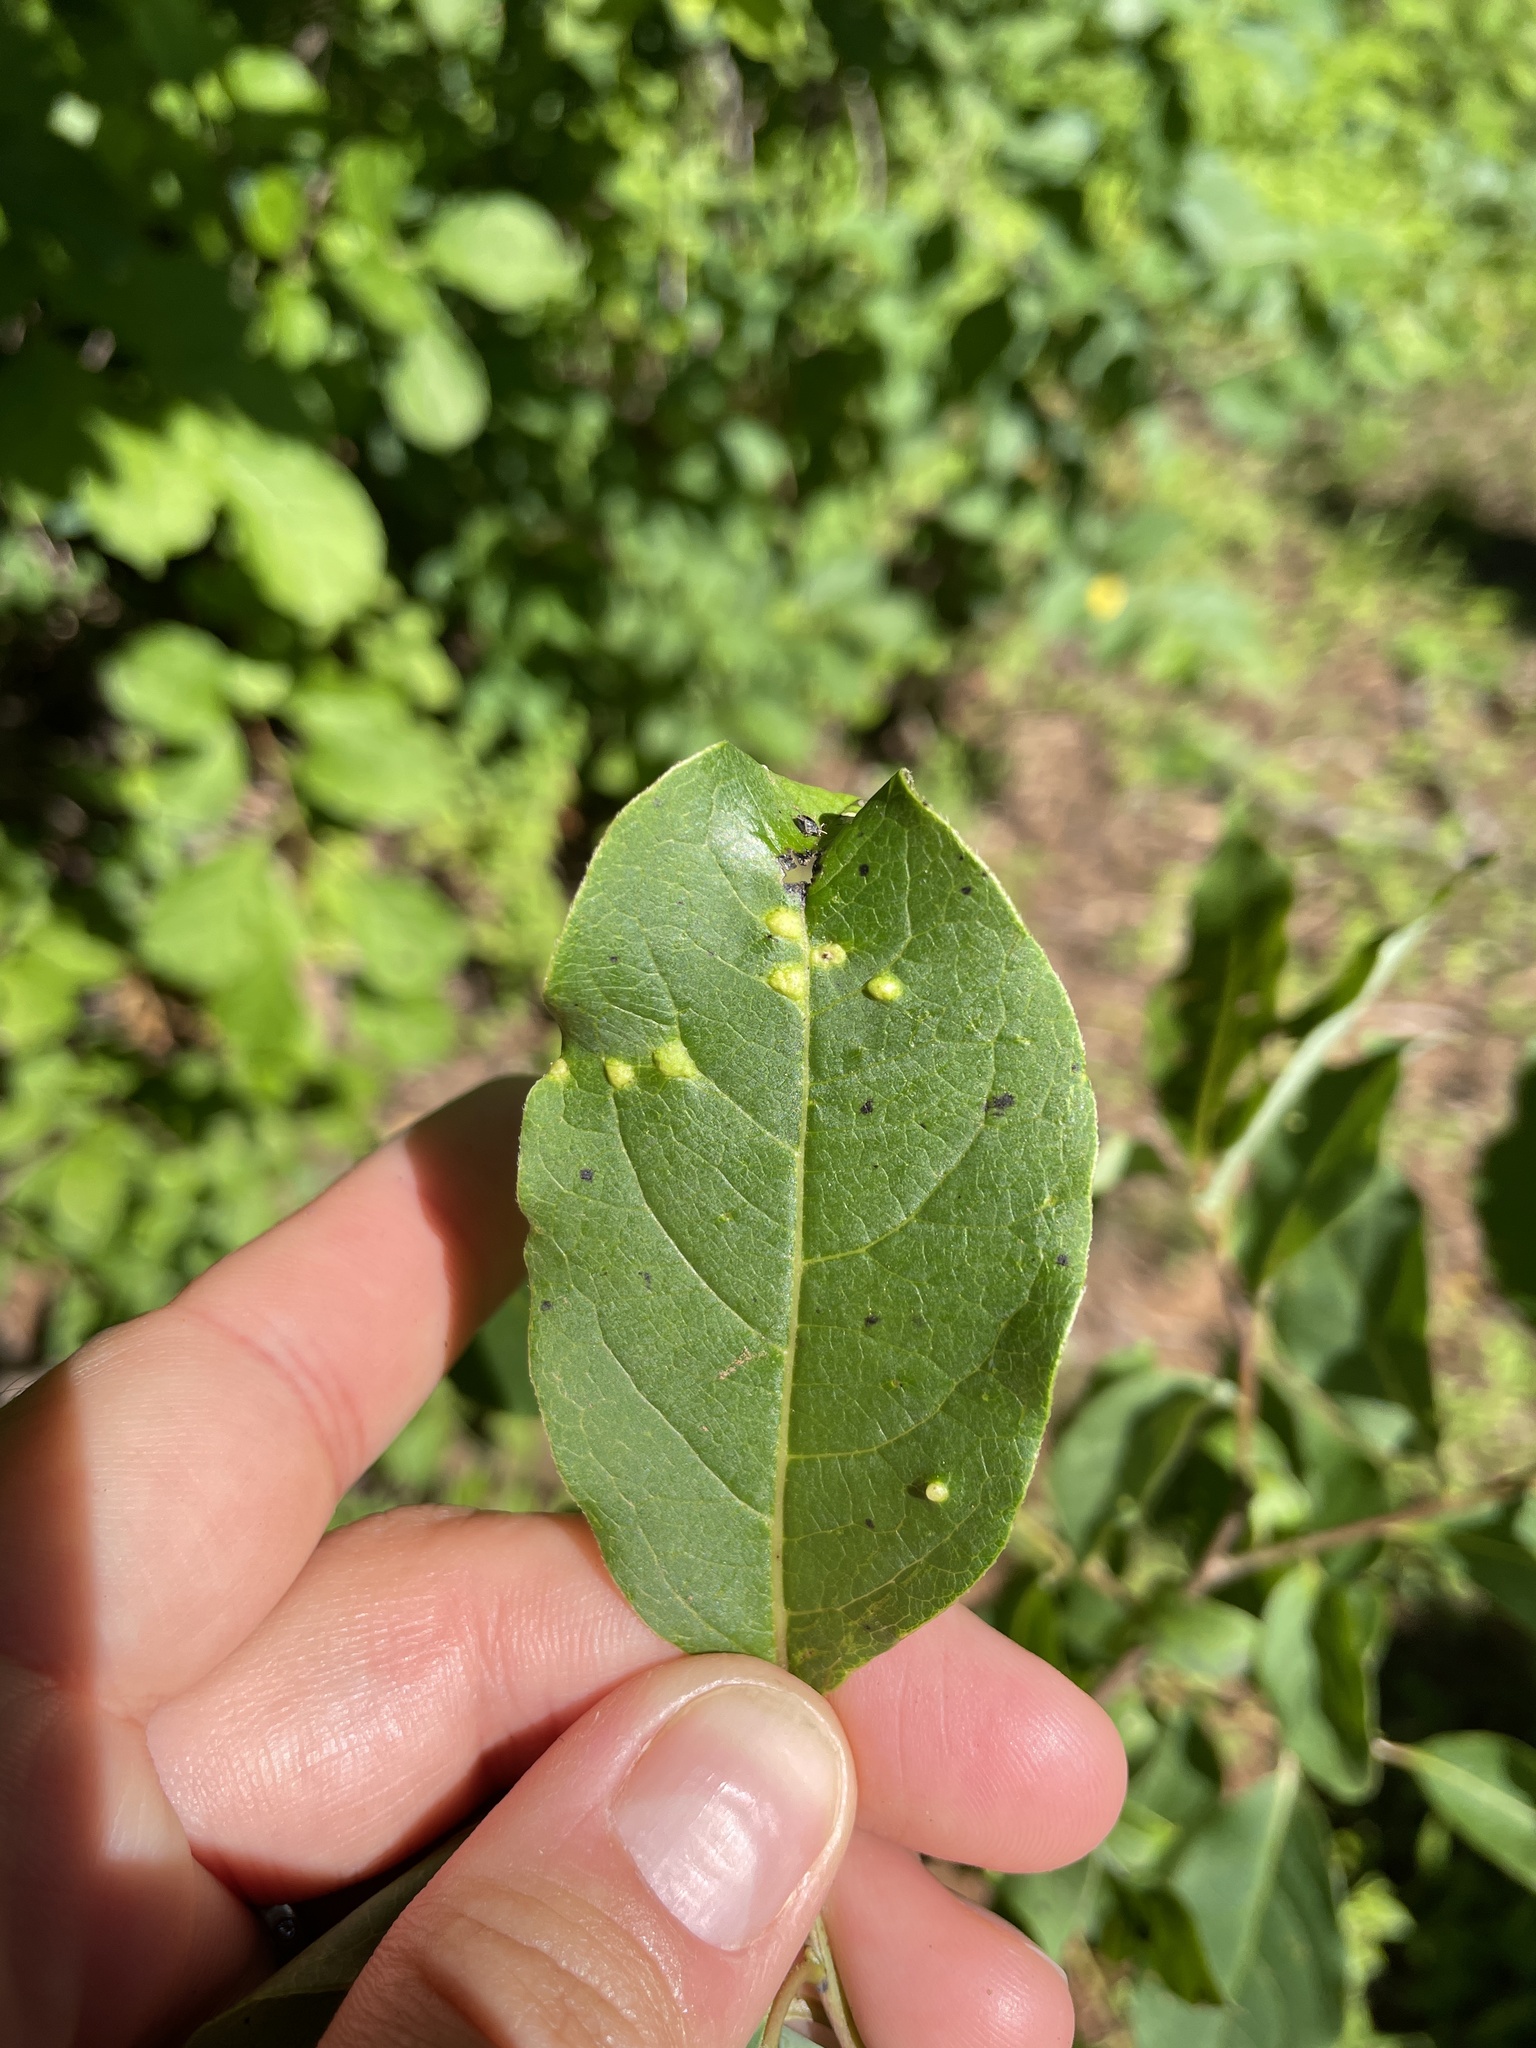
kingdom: Plantae
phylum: Tracheophyta
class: Magnoliopsida
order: Ericales
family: Ebenaceae
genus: Diospyros
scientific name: Diospyros virginiana
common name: Persimmon
